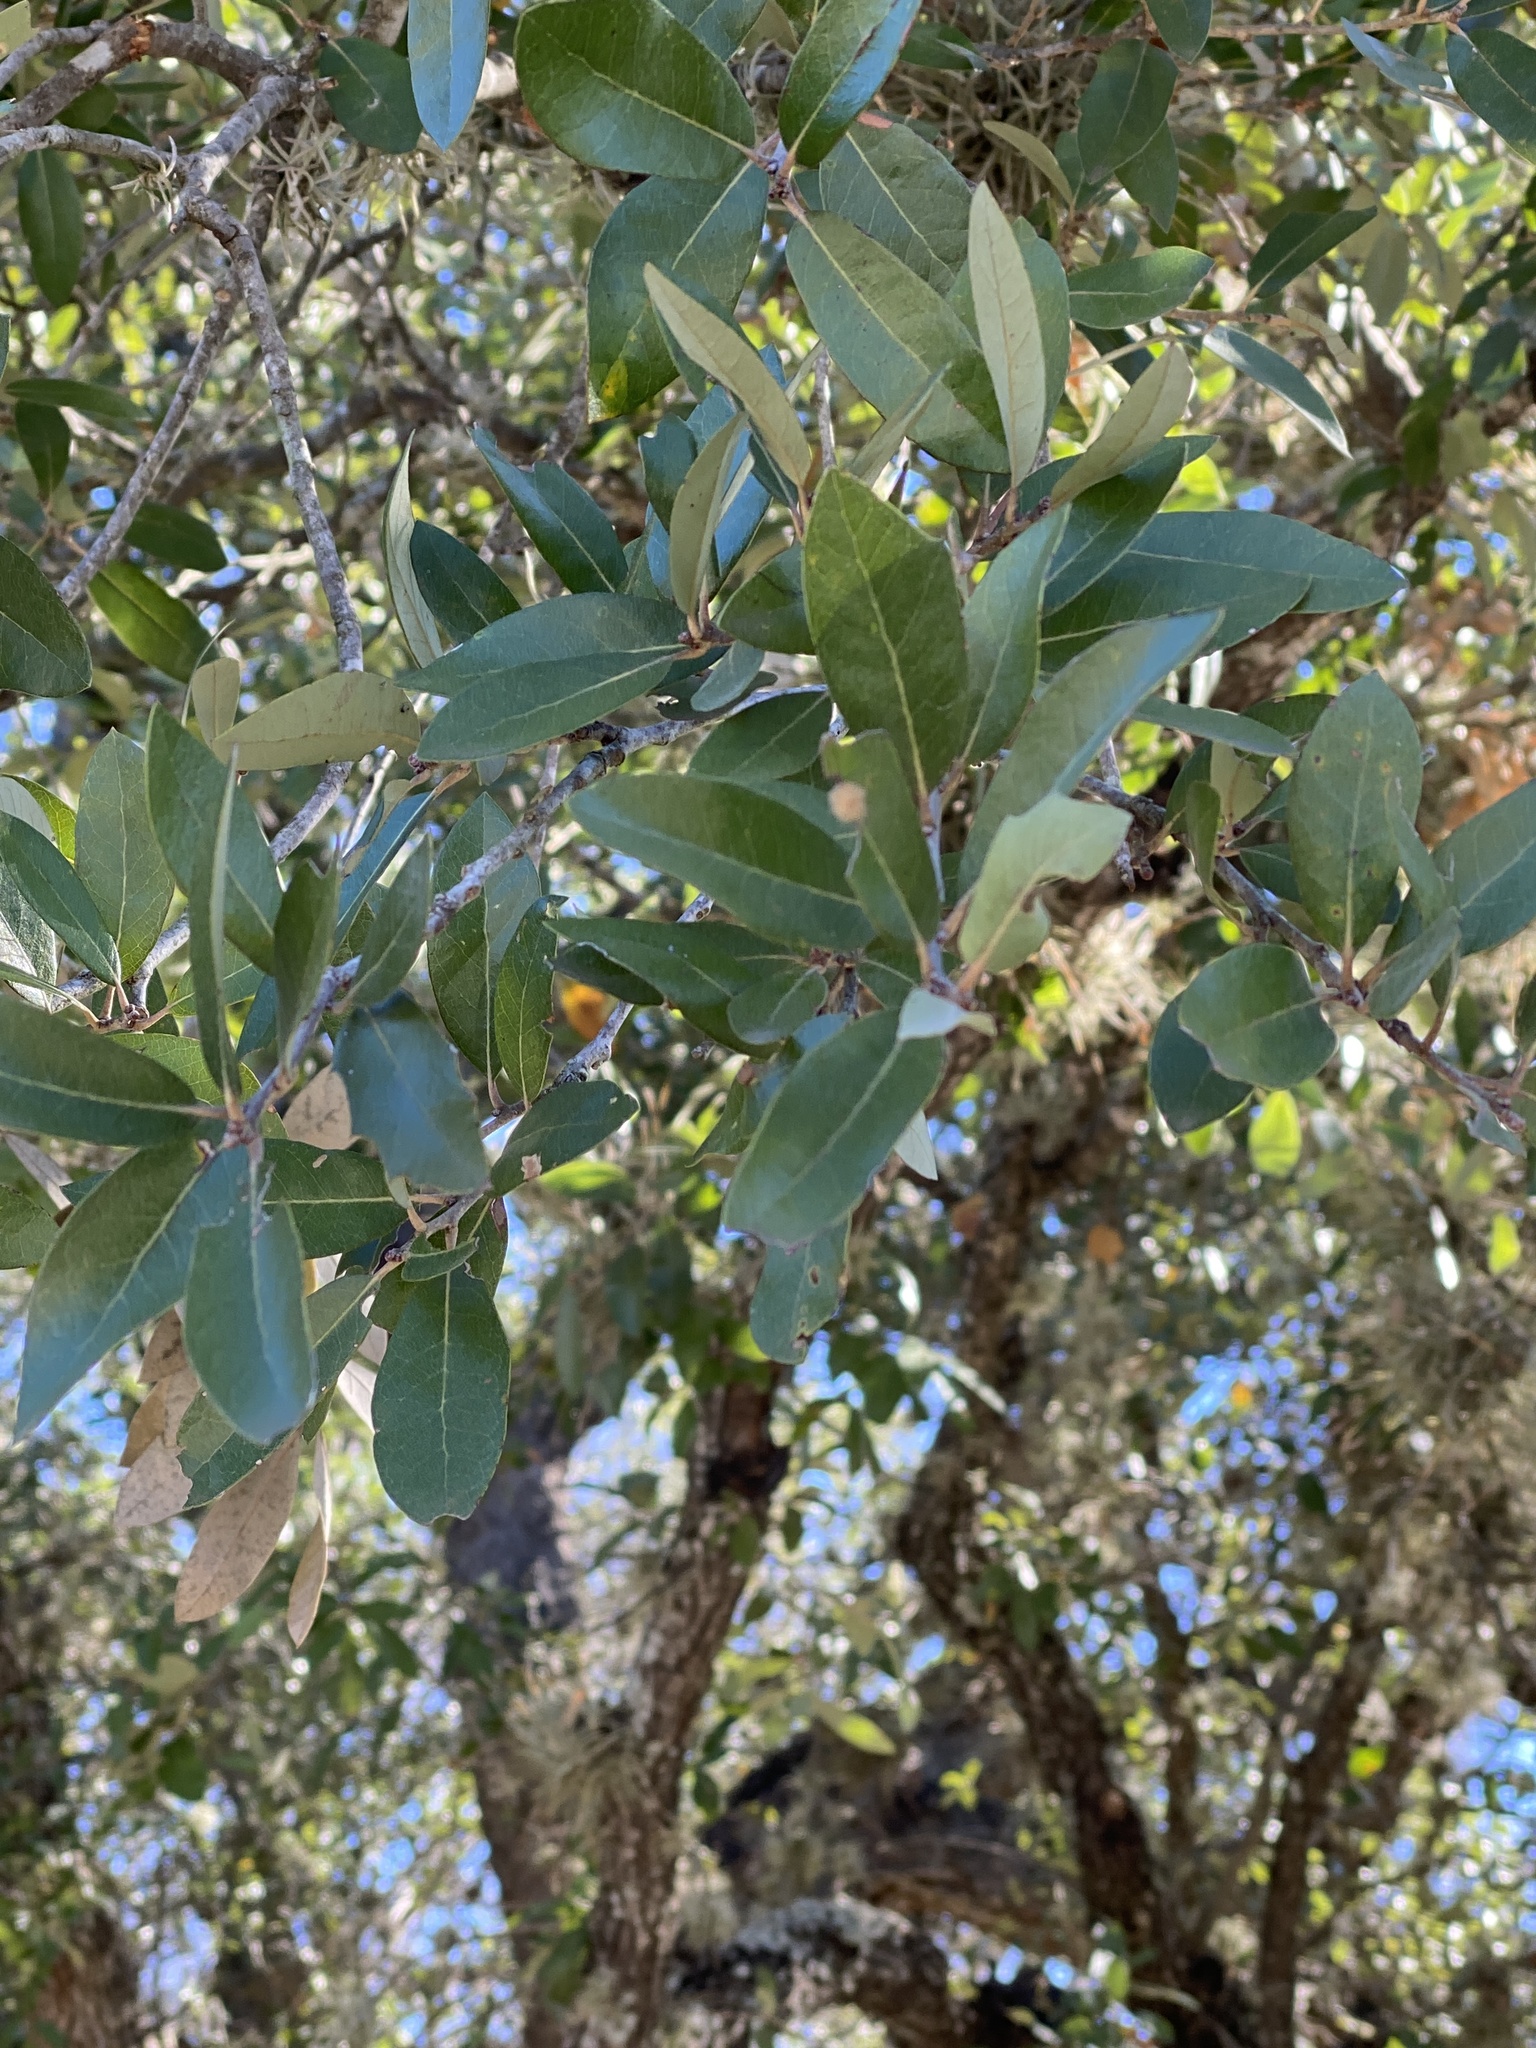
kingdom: Plantae
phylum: Tracheophyta
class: Magnoliopsida
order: Fagales
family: Fagaceae
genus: Quercus
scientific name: Quercus fusiformis
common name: Texas live oak
